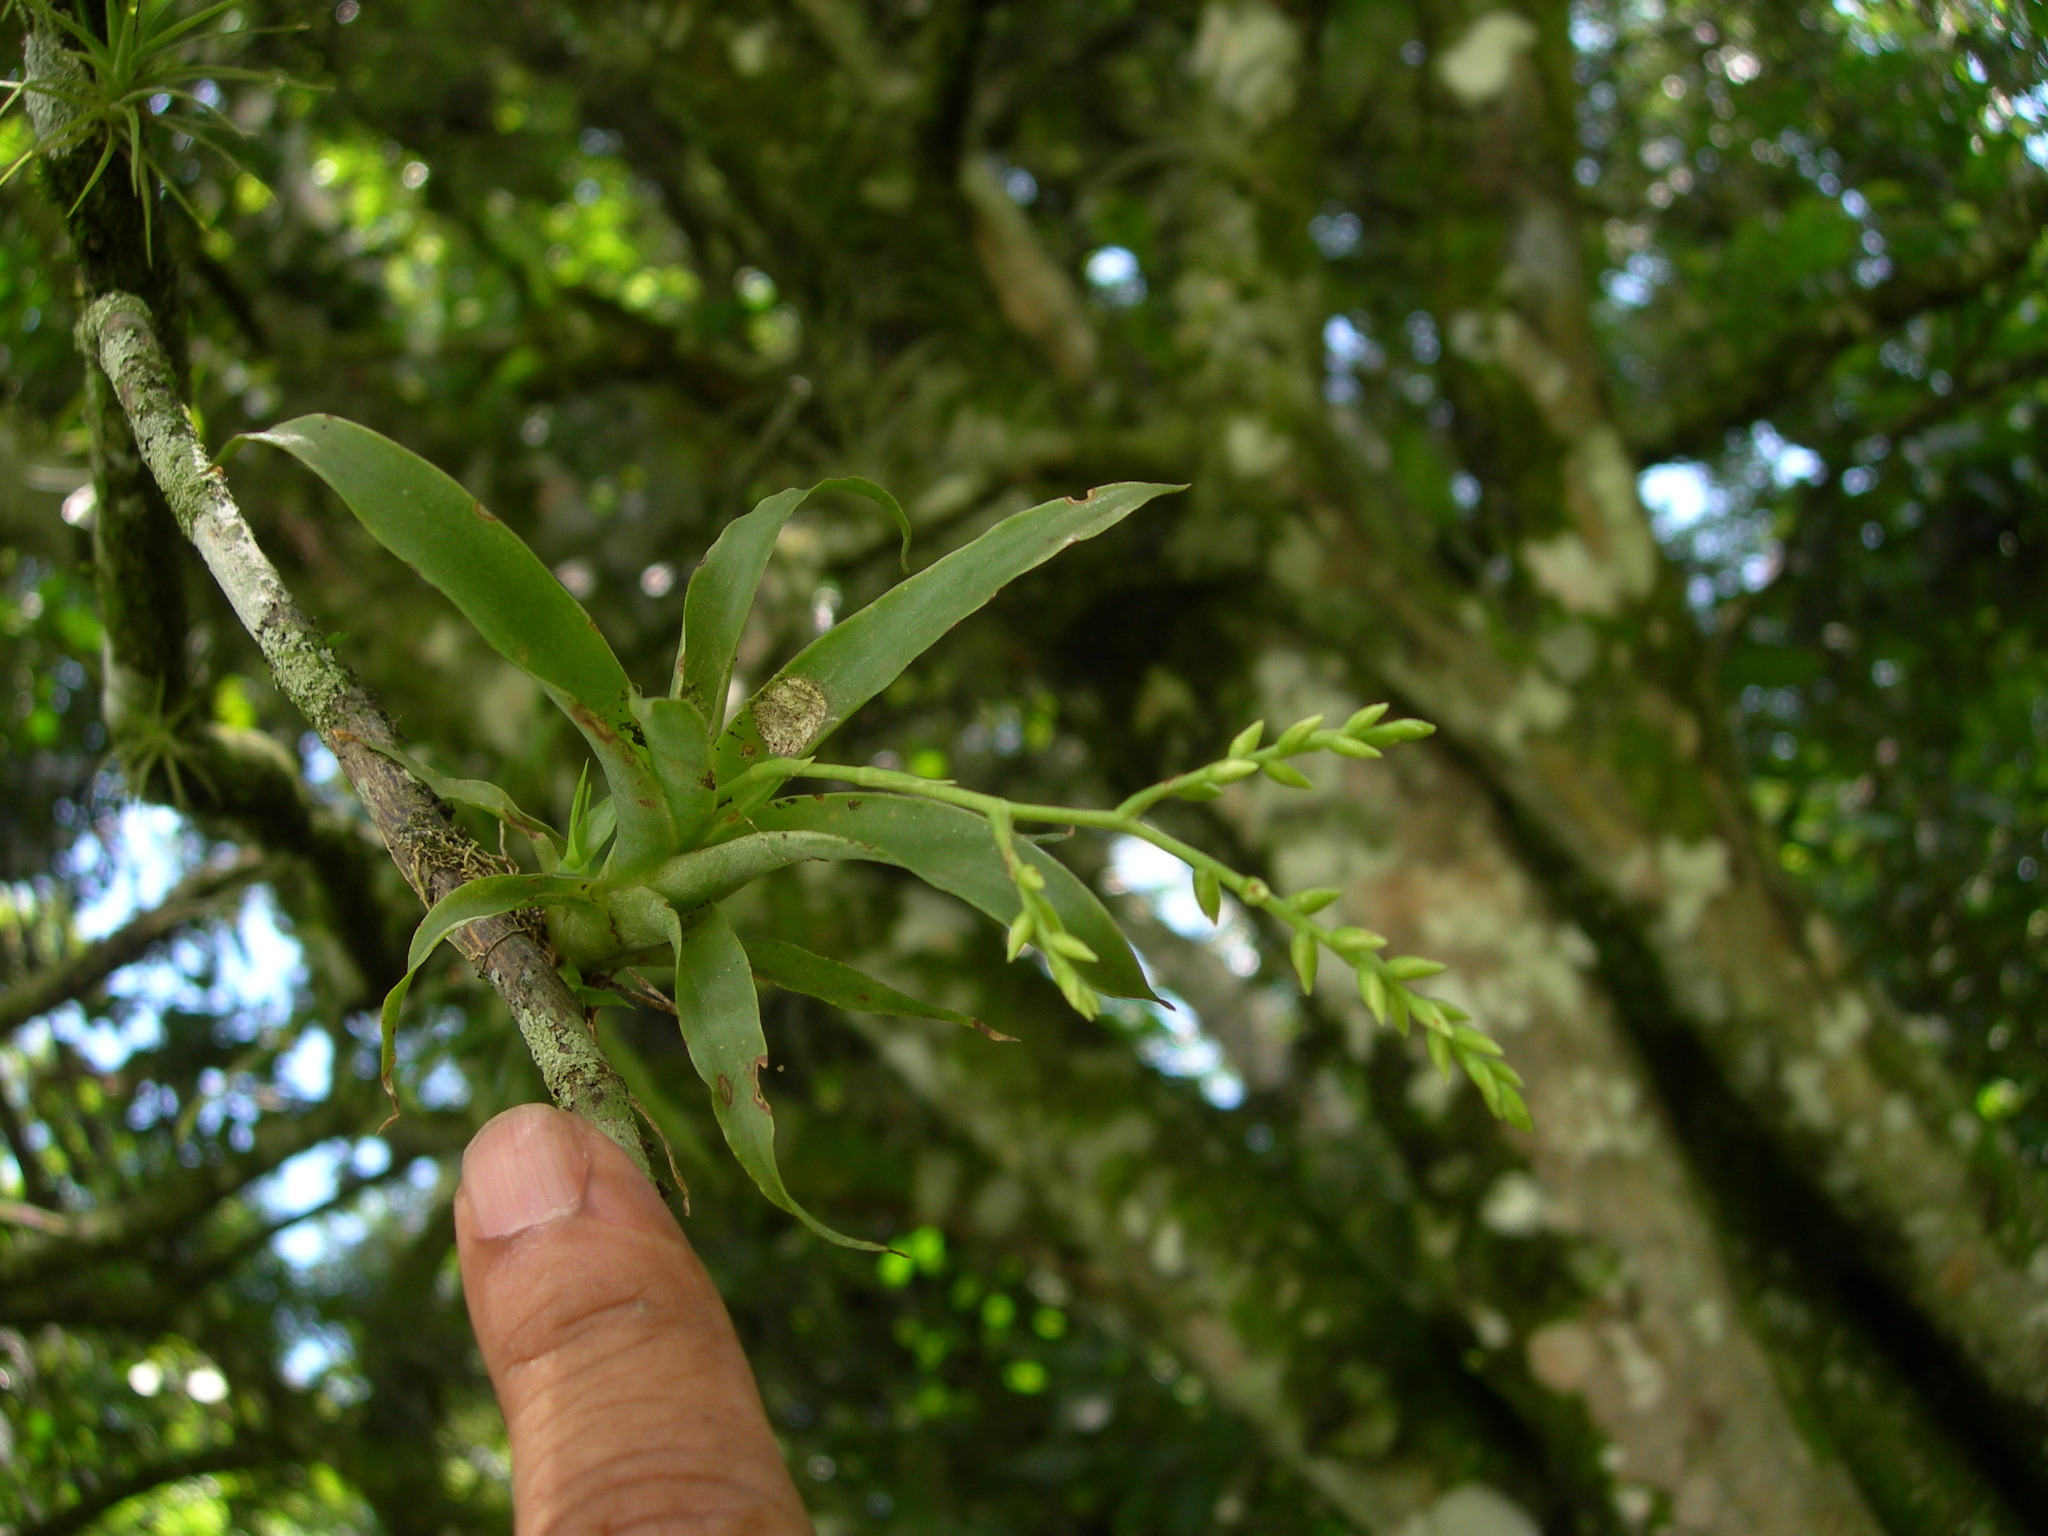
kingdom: Plantae
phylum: Tracheophyta
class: Liliopsida
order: Poales
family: Bromeliaceae
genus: Catopsis
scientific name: Catopsis sessiliflora
